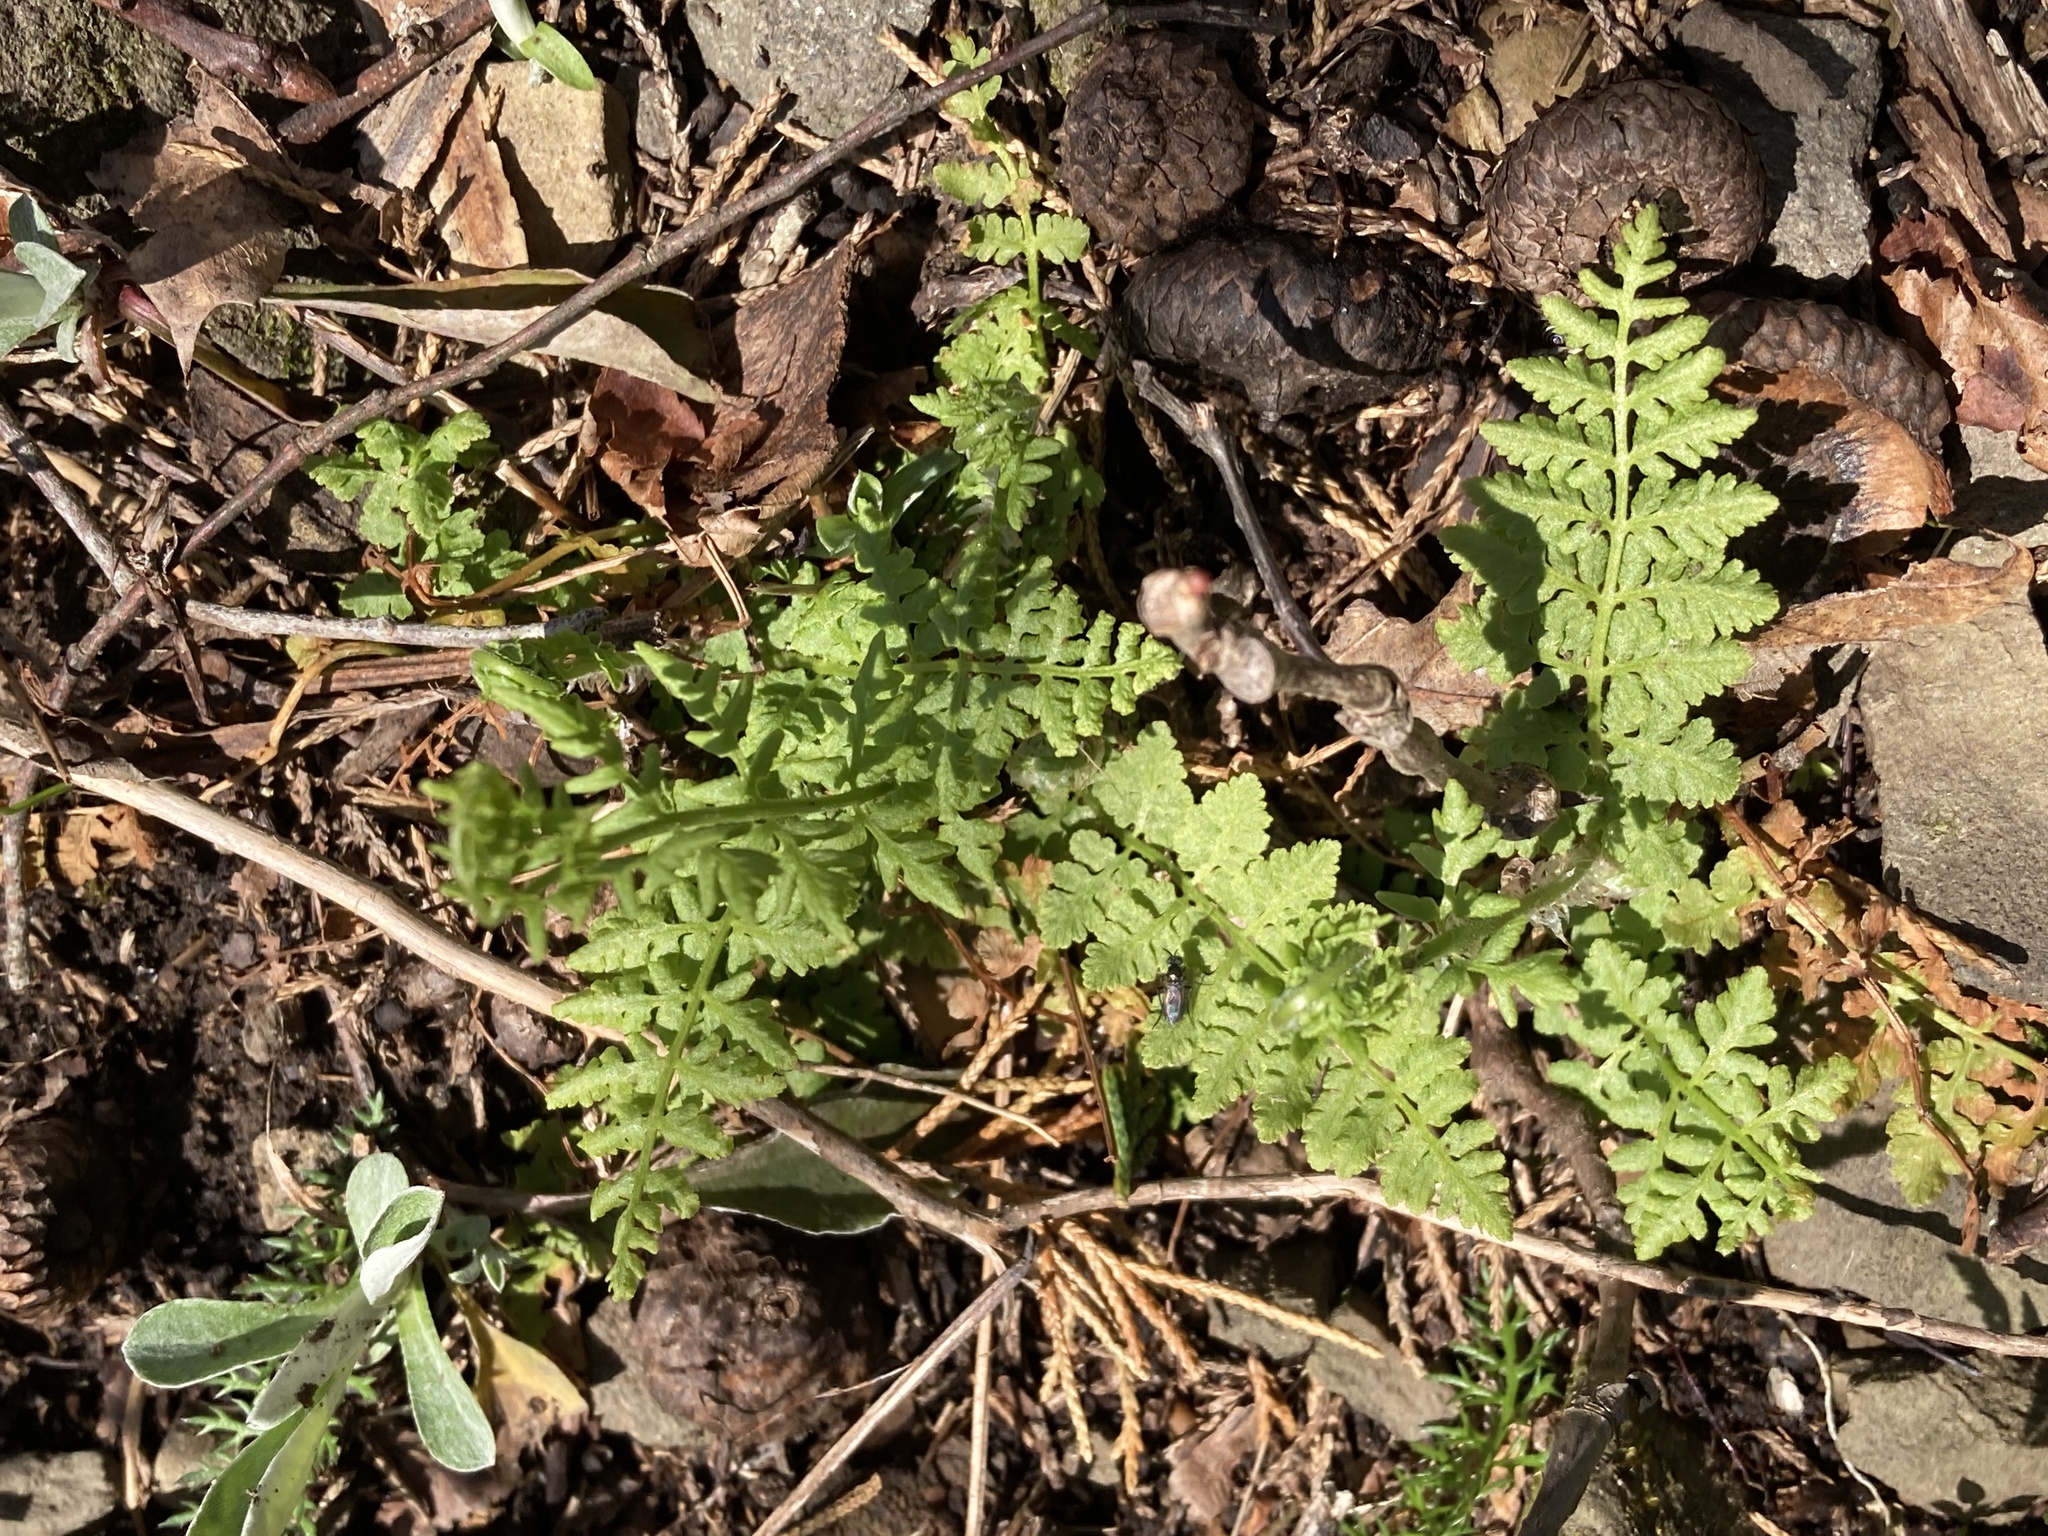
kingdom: Plantae
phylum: Tracheophyta
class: Polypodiopsida
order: Polypodiales
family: Woodsiaceae
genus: Physematium
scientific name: Physematium obtusum
